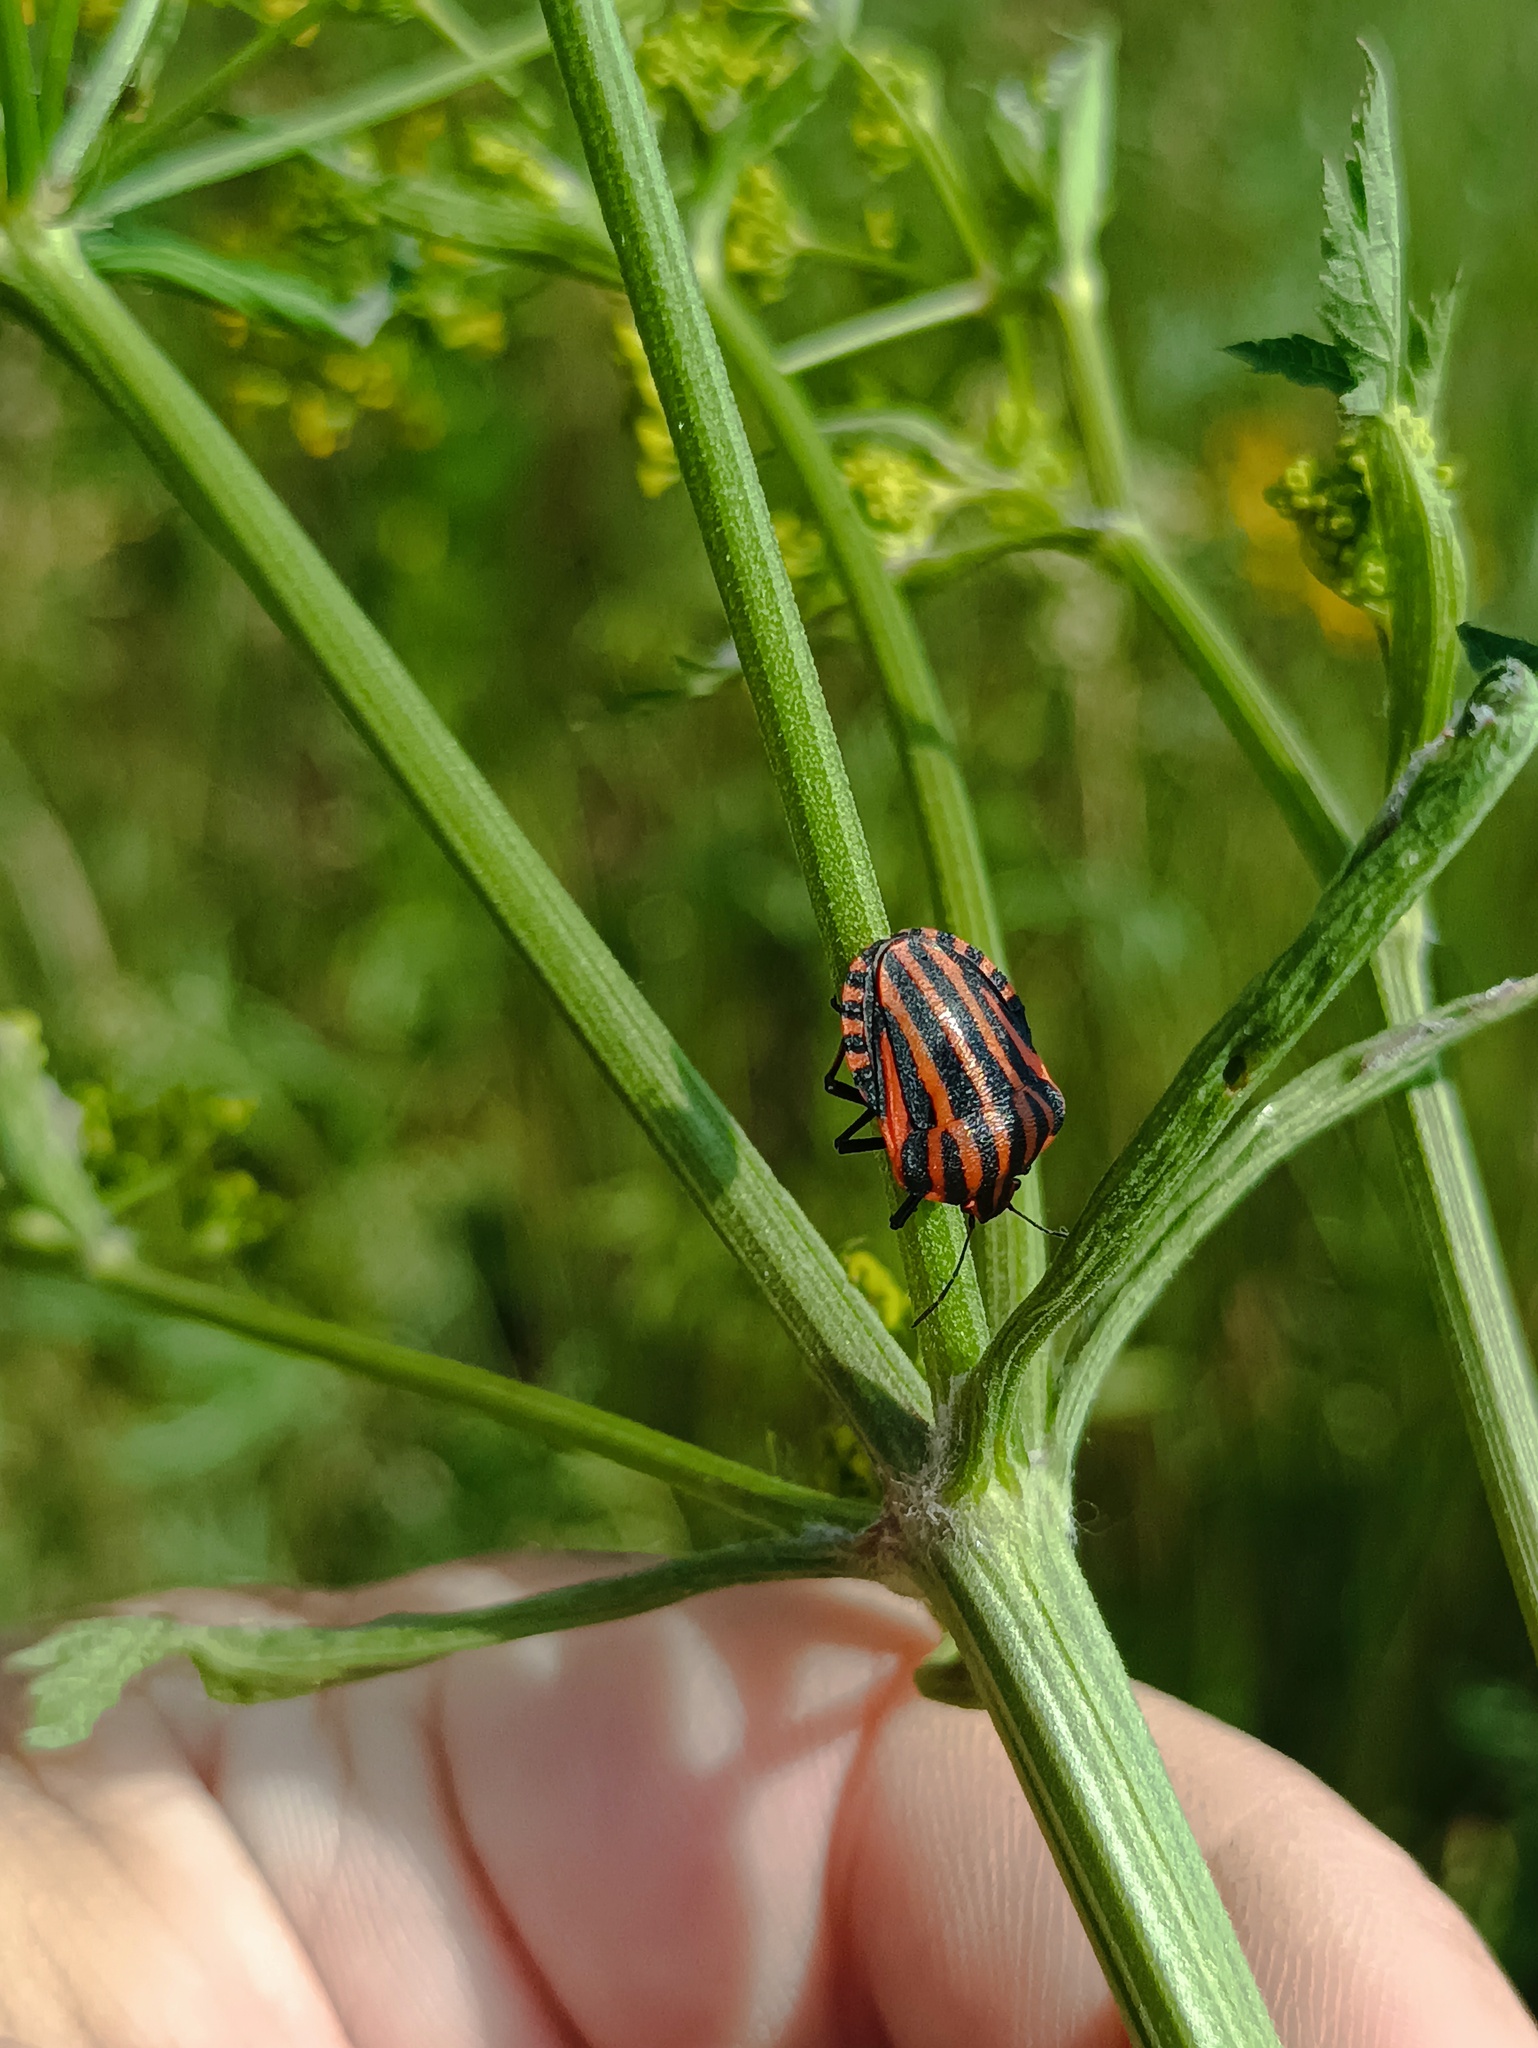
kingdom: Animalia
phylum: Arthropoda
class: Insecta
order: Hemiptera
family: Pentatomidae
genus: Graphosoma
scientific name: Graphosoma italicum
